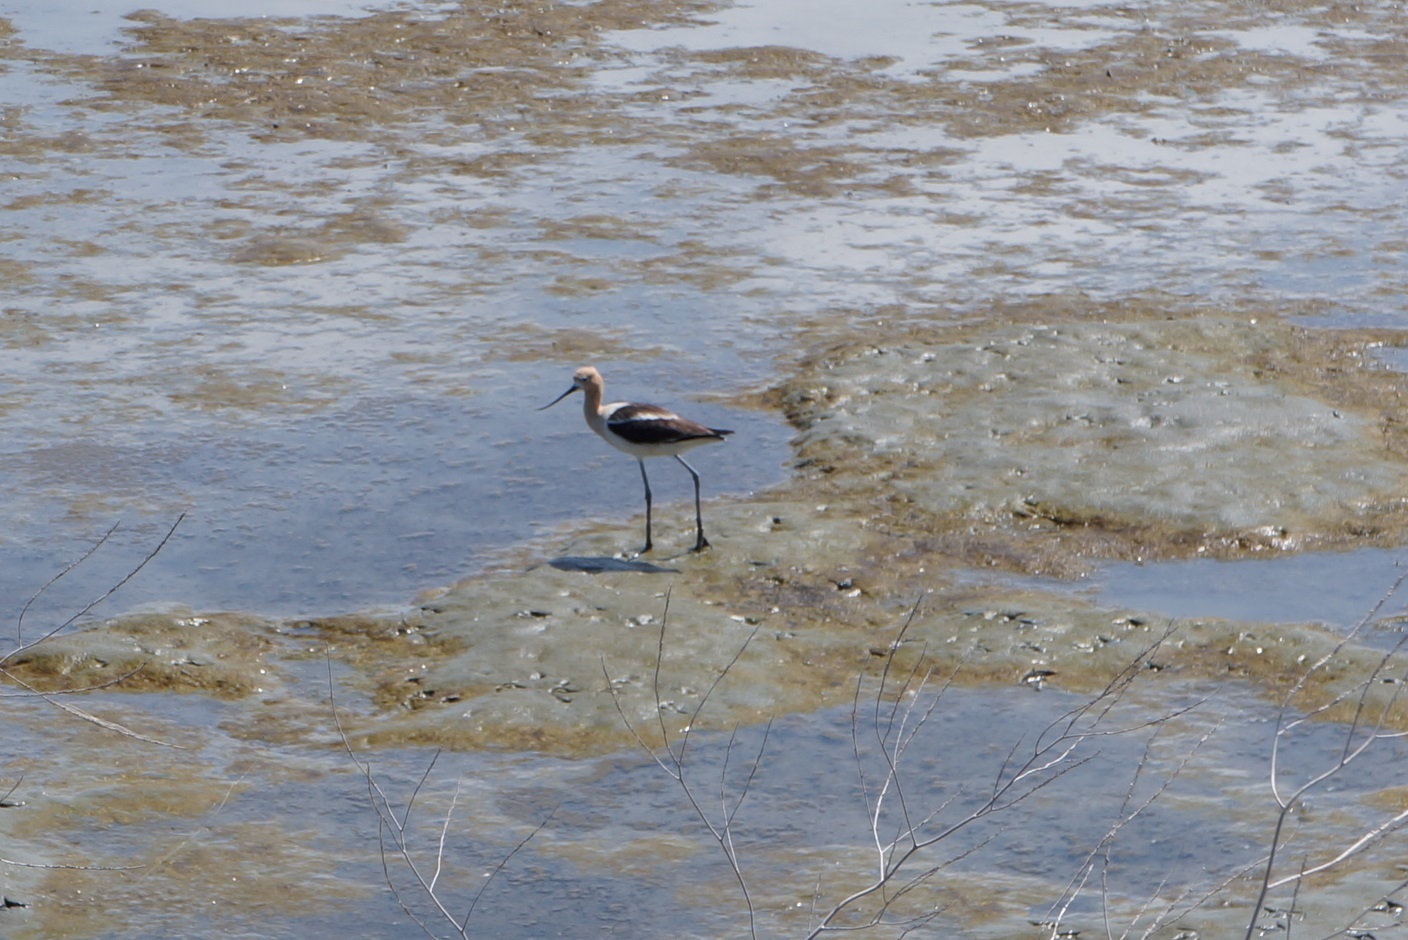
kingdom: Animalia
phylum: Chordata
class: Aves
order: Charadriiformes
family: Recurvirostridae
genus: Recurvirostra
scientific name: Recurvirostra americana
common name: American avocet
